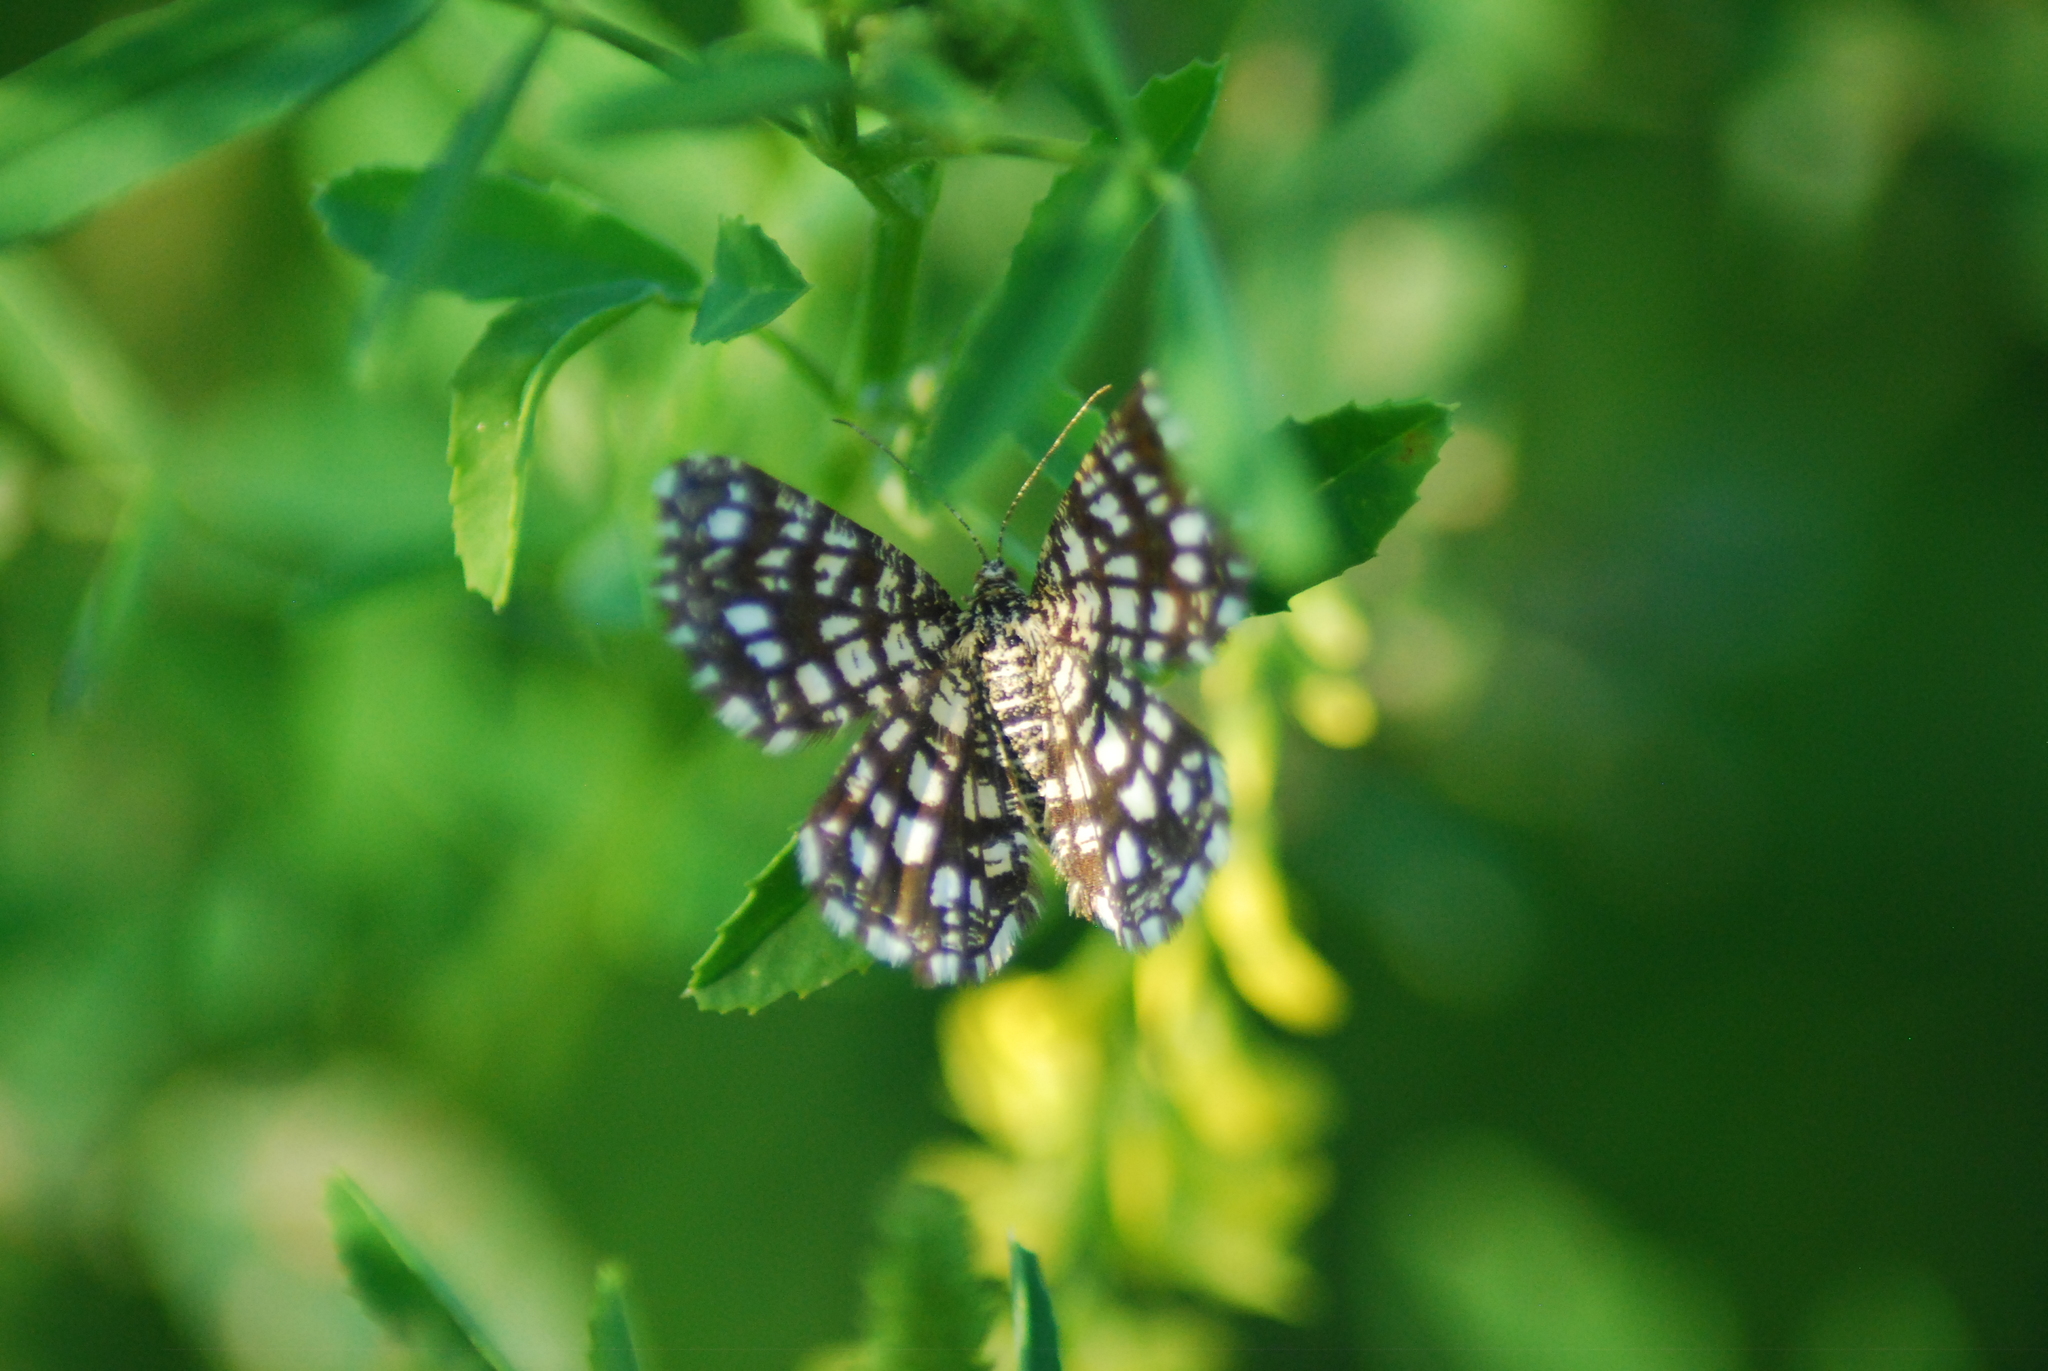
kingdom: Animalia
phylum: Arthropoda
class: Insecta
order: Lepidoptera
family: Geometridae
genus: Chiasmia
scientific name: Chiasmia clathrata
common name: Latticed heath
